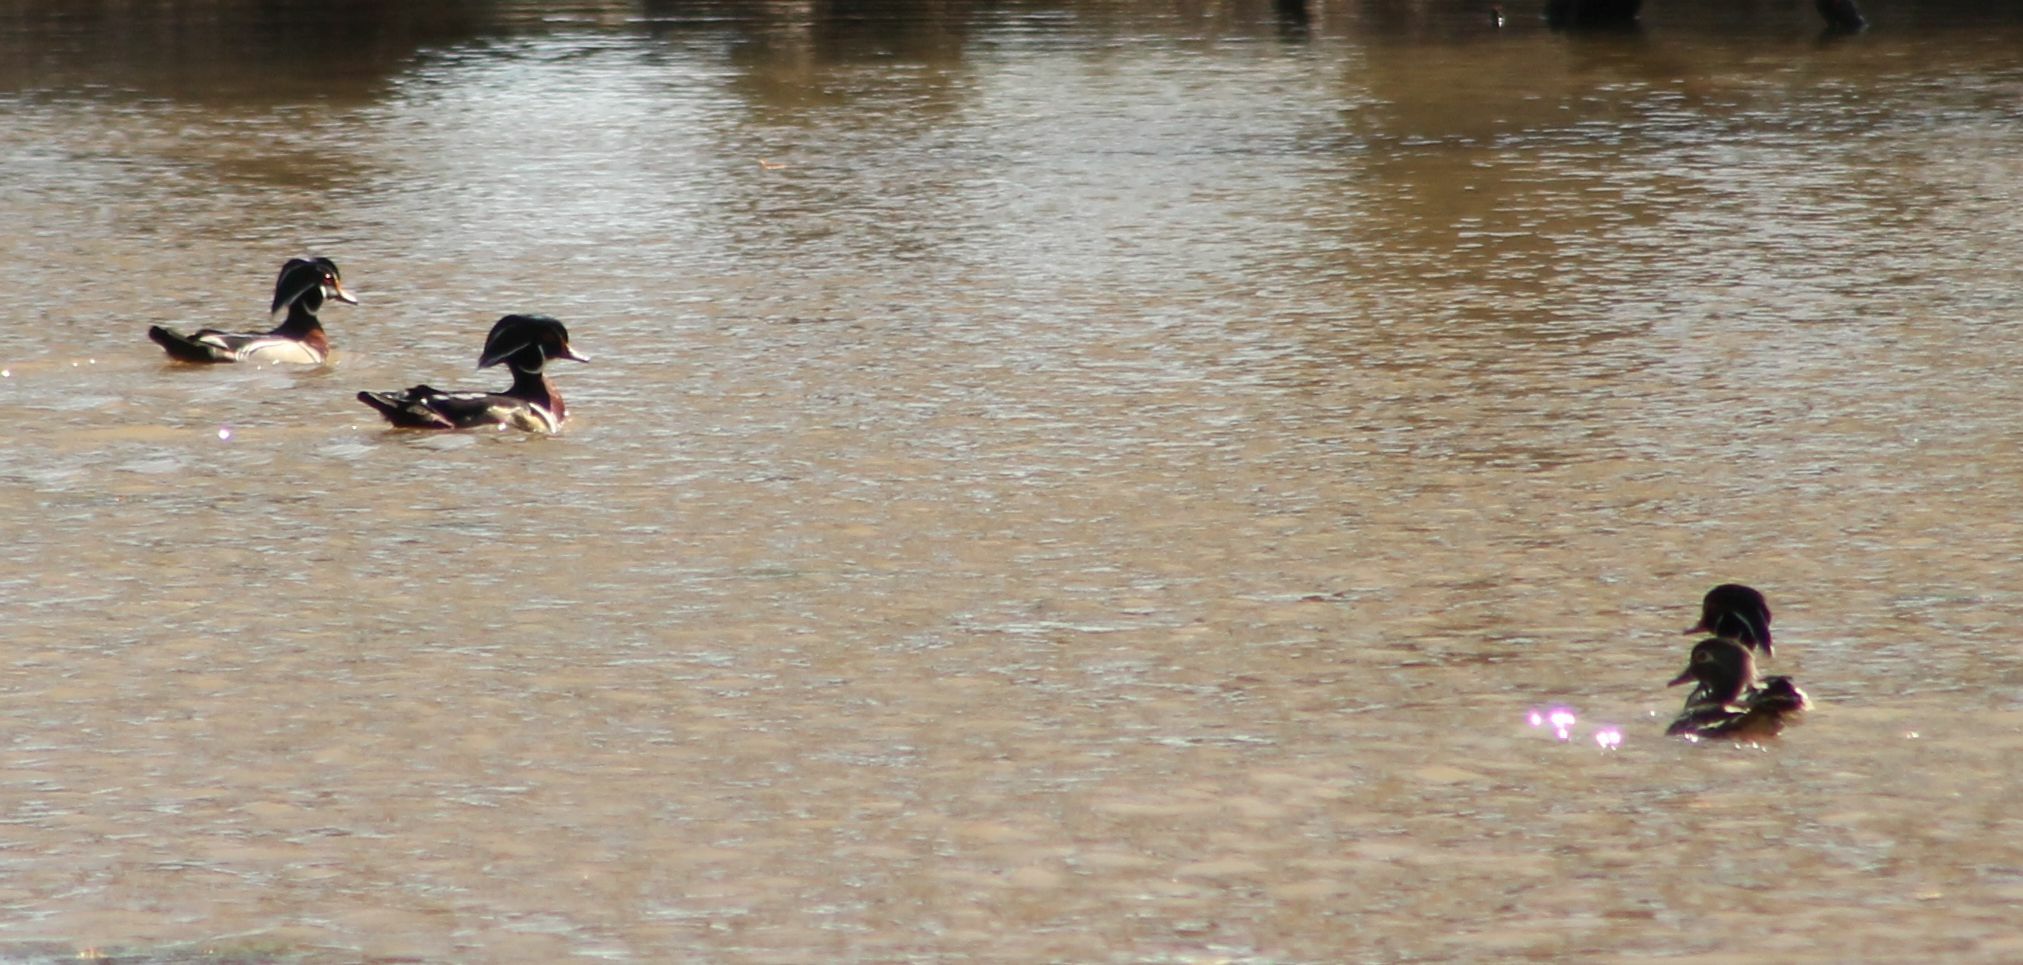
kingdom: Animalia
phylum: Chordata
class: Aves
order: Anseriformes
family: Anatidae
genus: Aix
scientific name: Aix sponsa
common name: Wood duck
